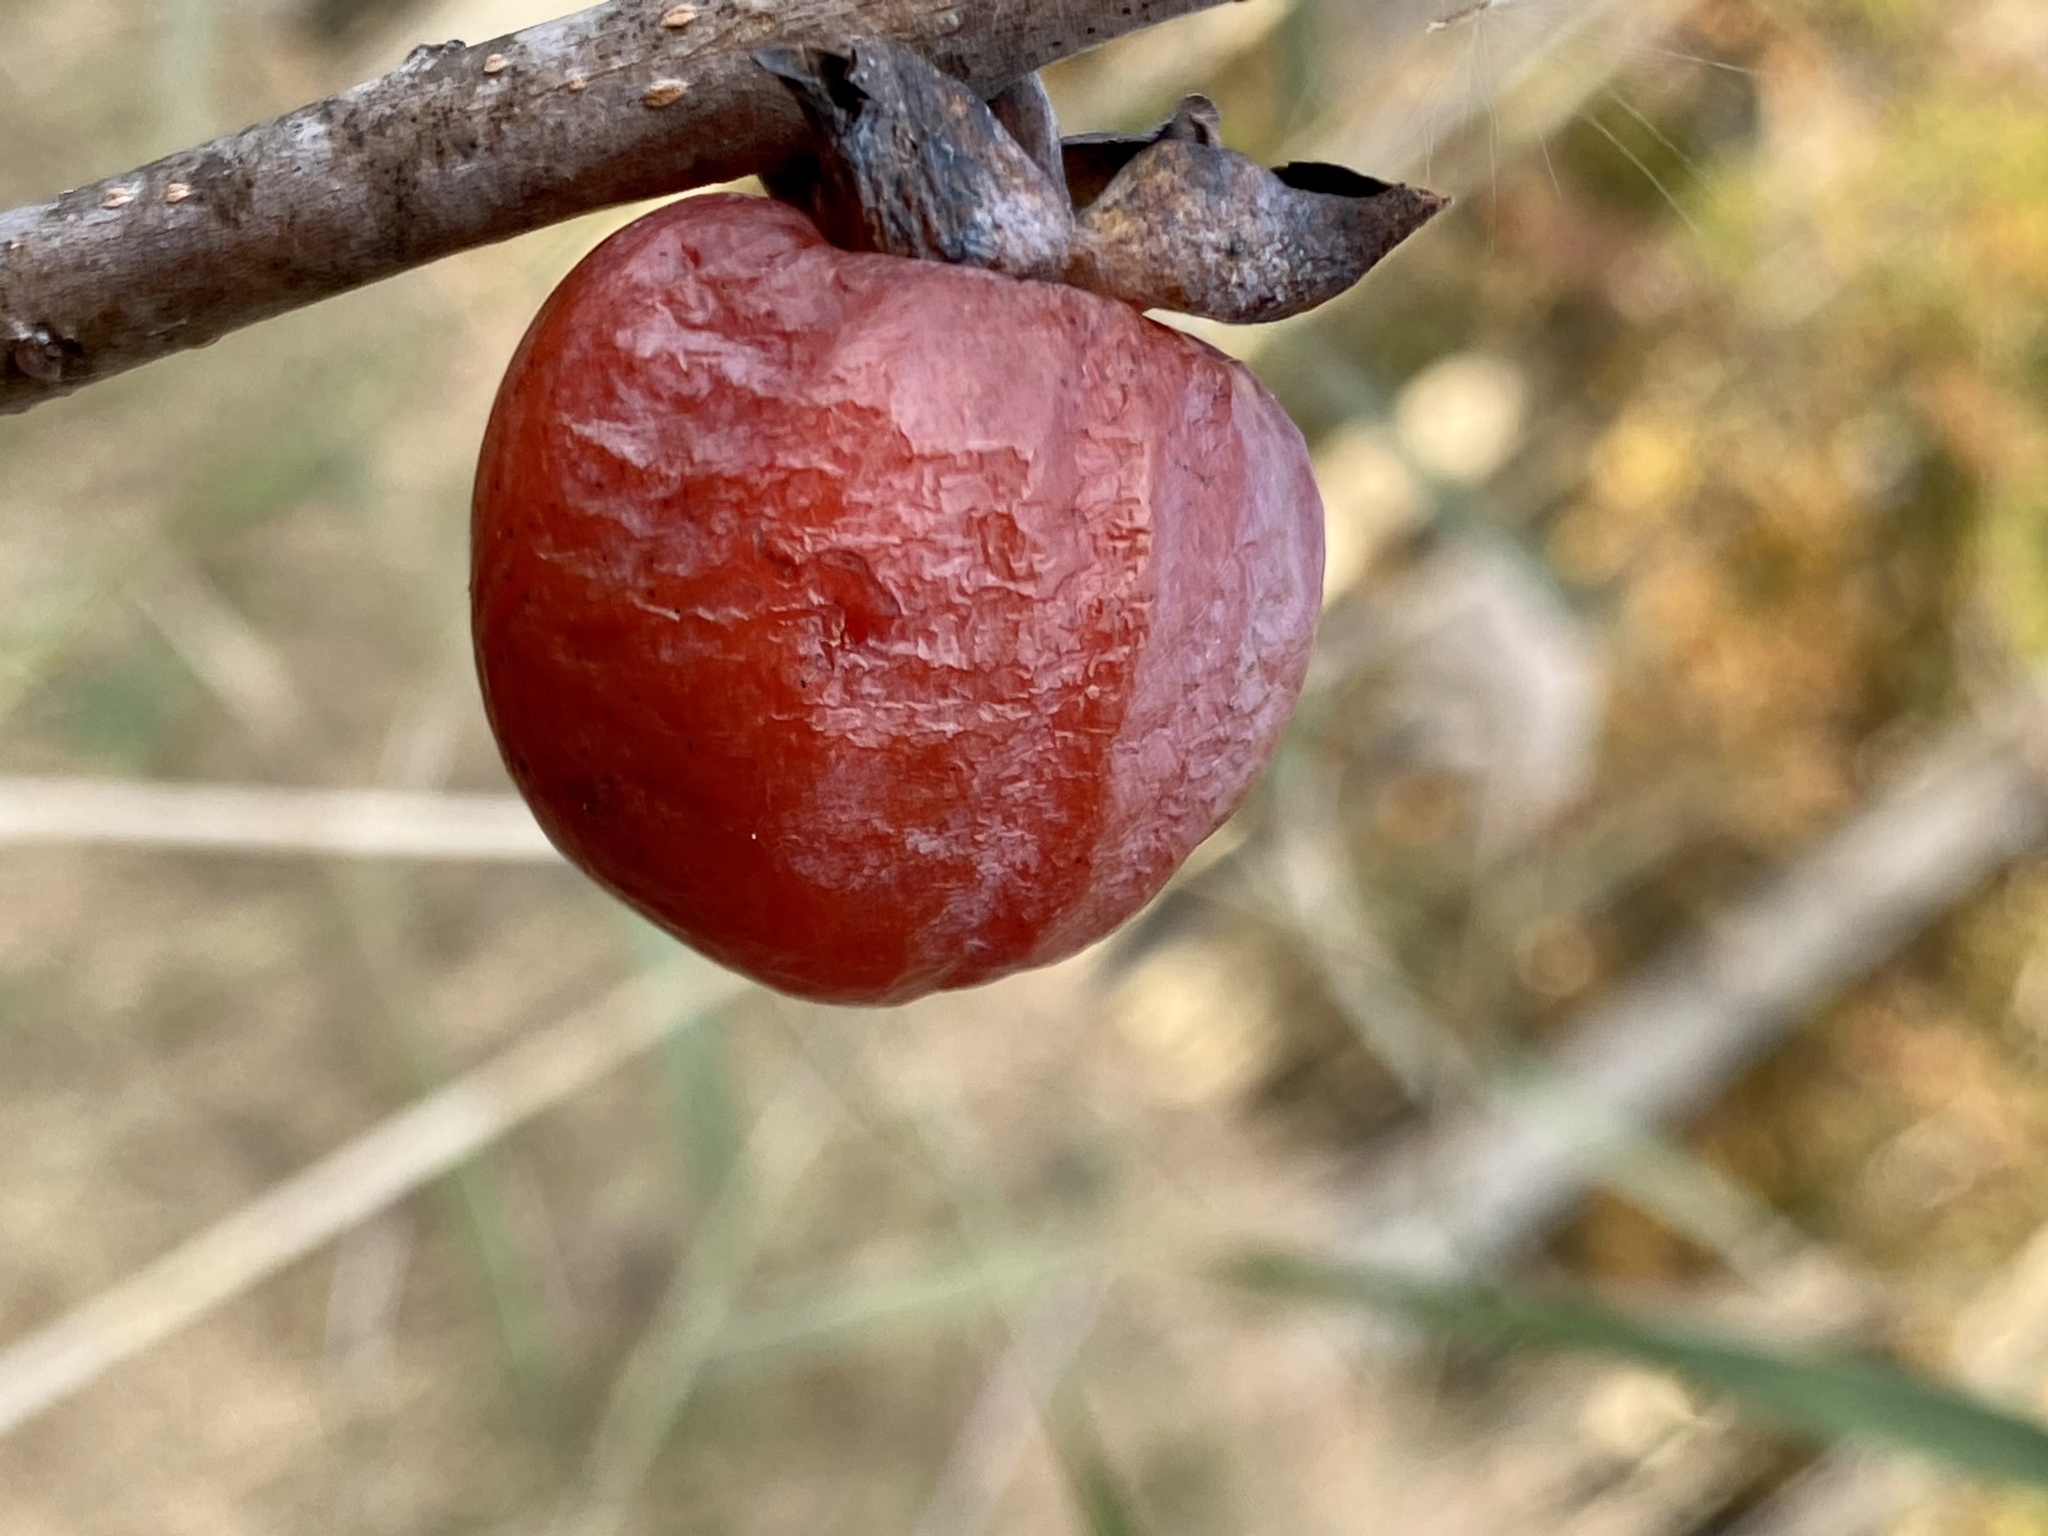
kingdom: Plantae
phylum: Tracheophyta
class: Magnoliopsida
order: Ericales
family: Ebenaceae
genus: Diospyros
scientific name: Diospyros virginiana
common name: Persimmon
